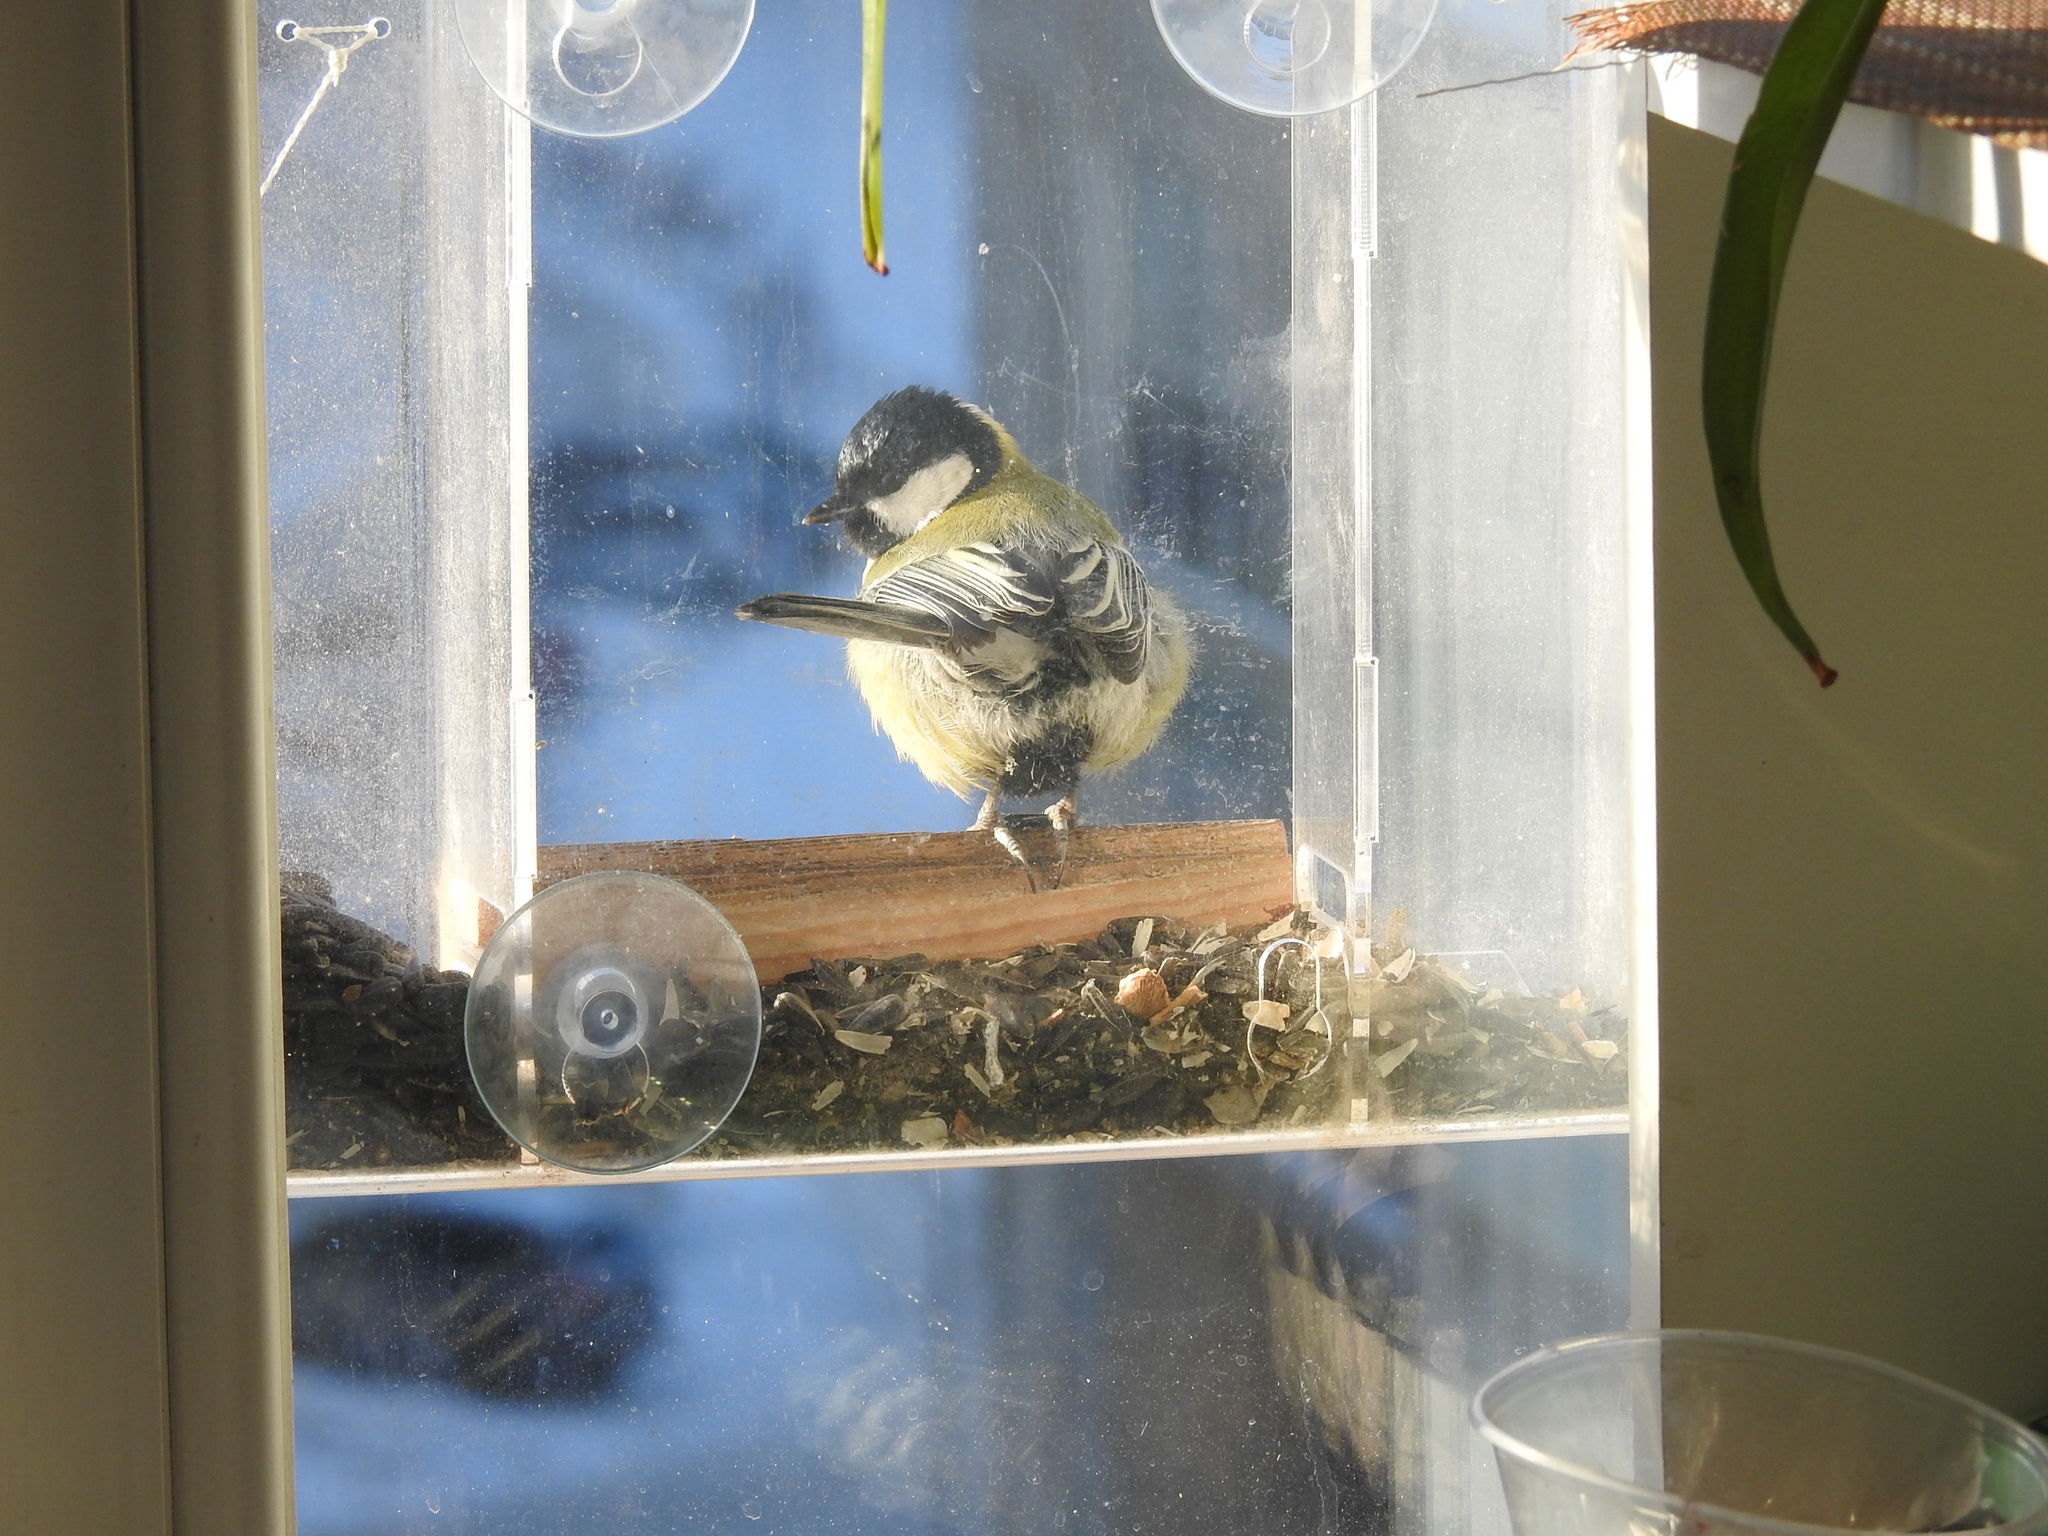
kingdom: Animalia
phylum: Chordata
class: Aves
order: Passeriformes
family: Paridae
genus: Parus
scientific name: Parus major
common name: Great tit
